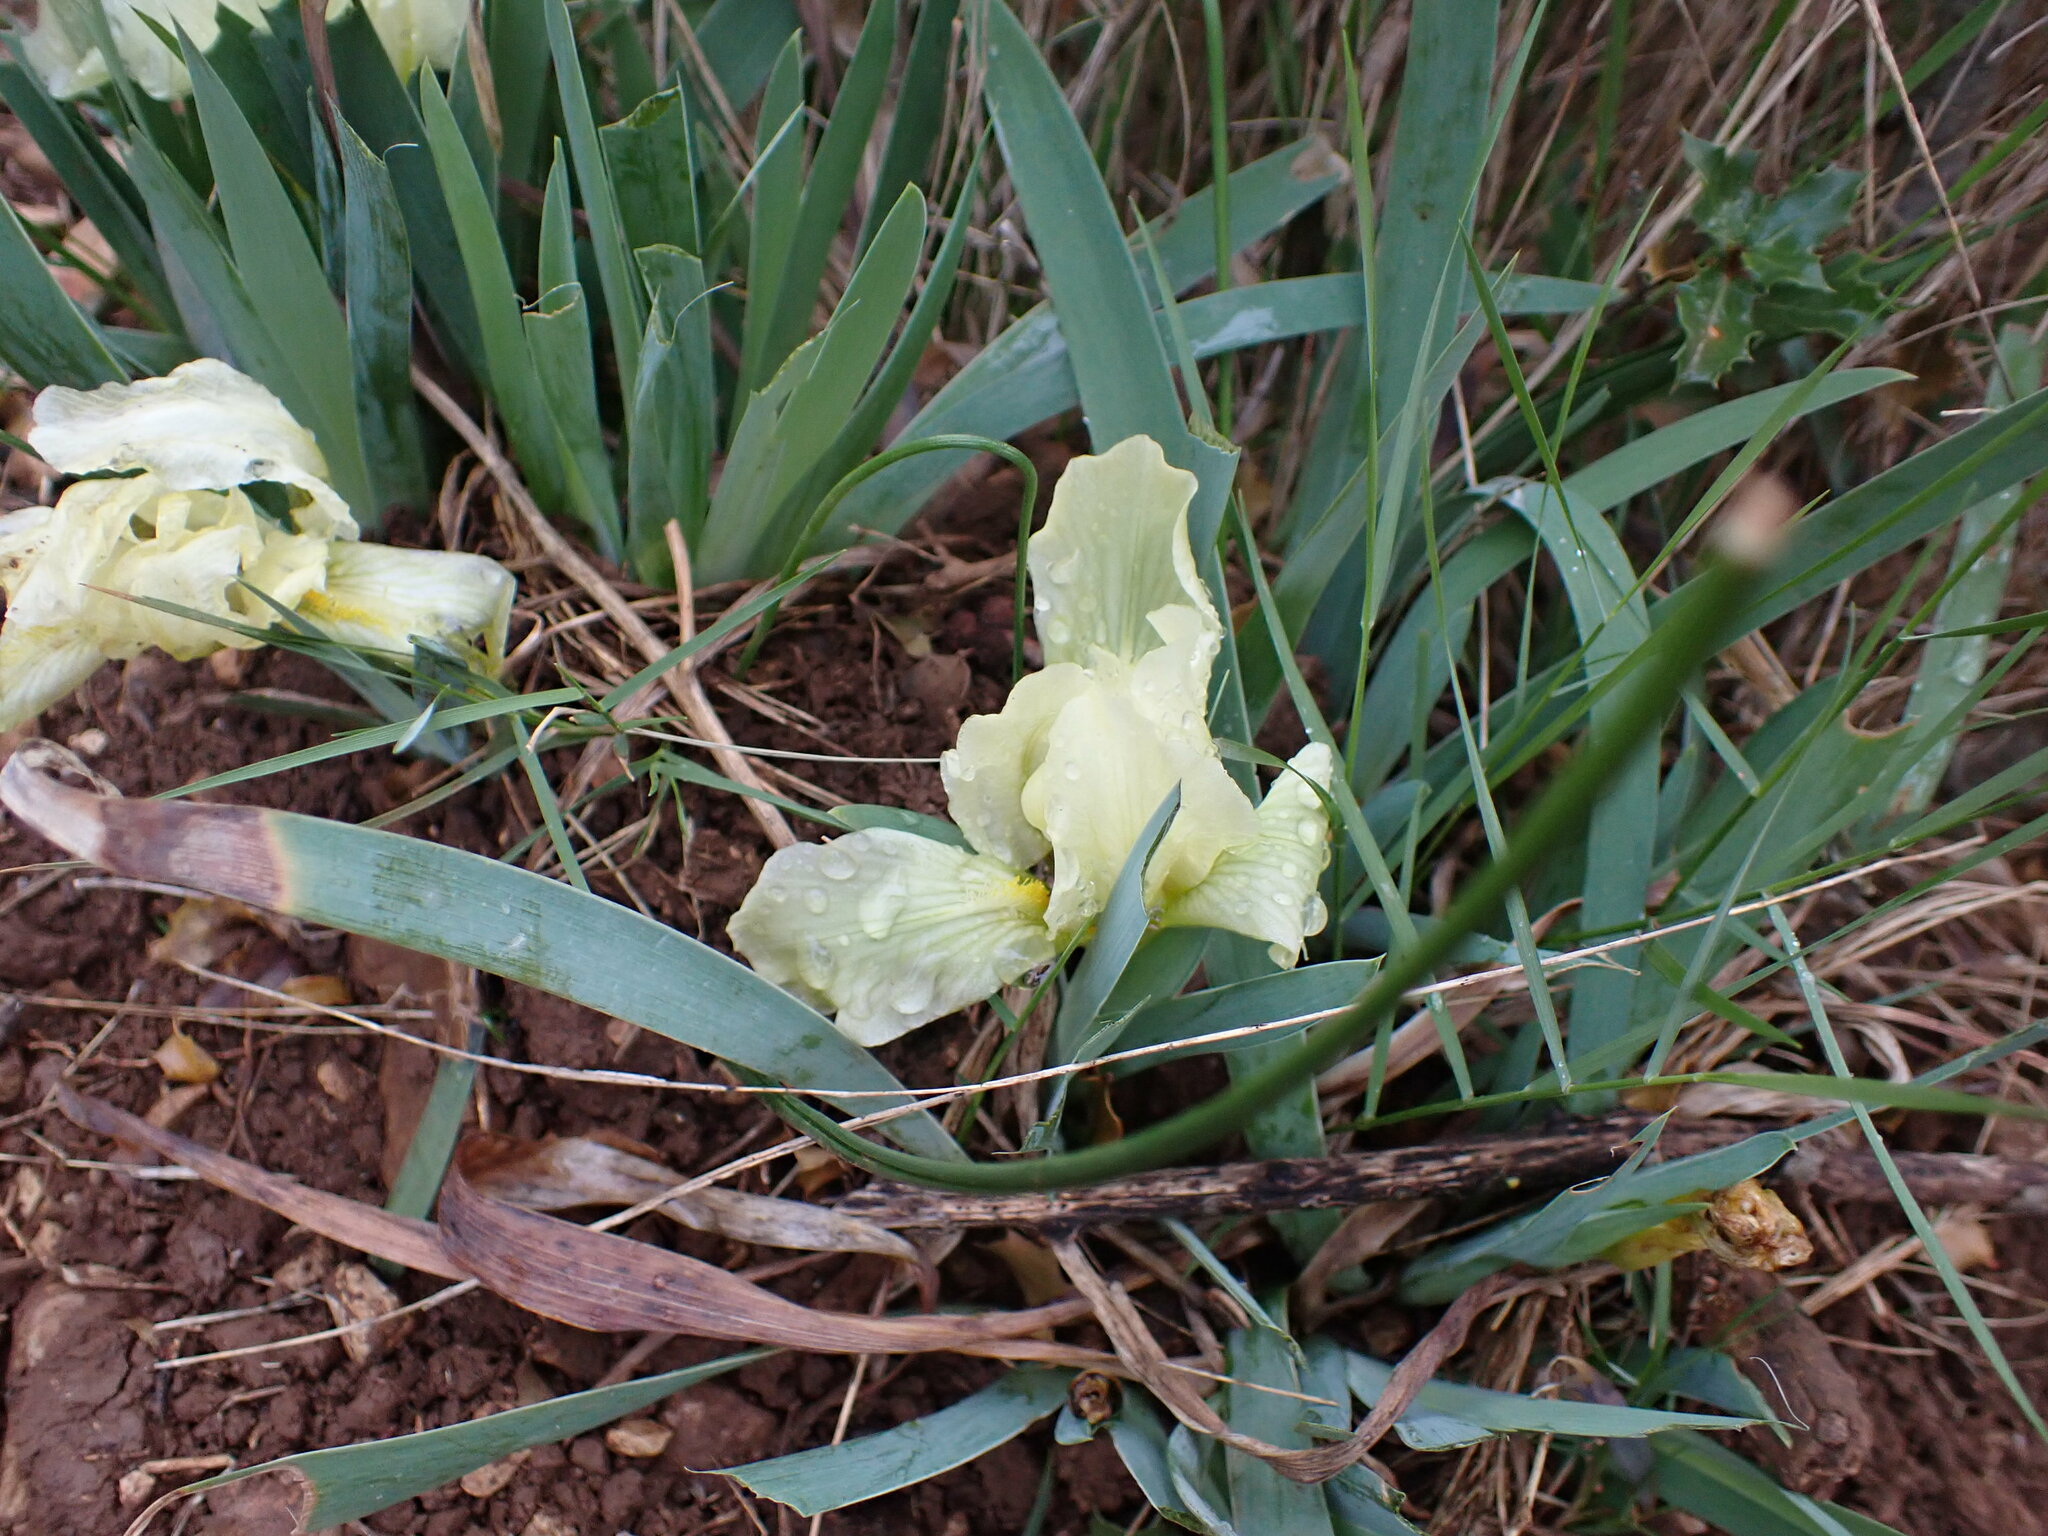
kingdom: Plantae
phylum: Tracheophyta
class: Liliopsida
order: Asparagales
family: Iridaceae
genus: Iris
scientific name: Iris lutescens
